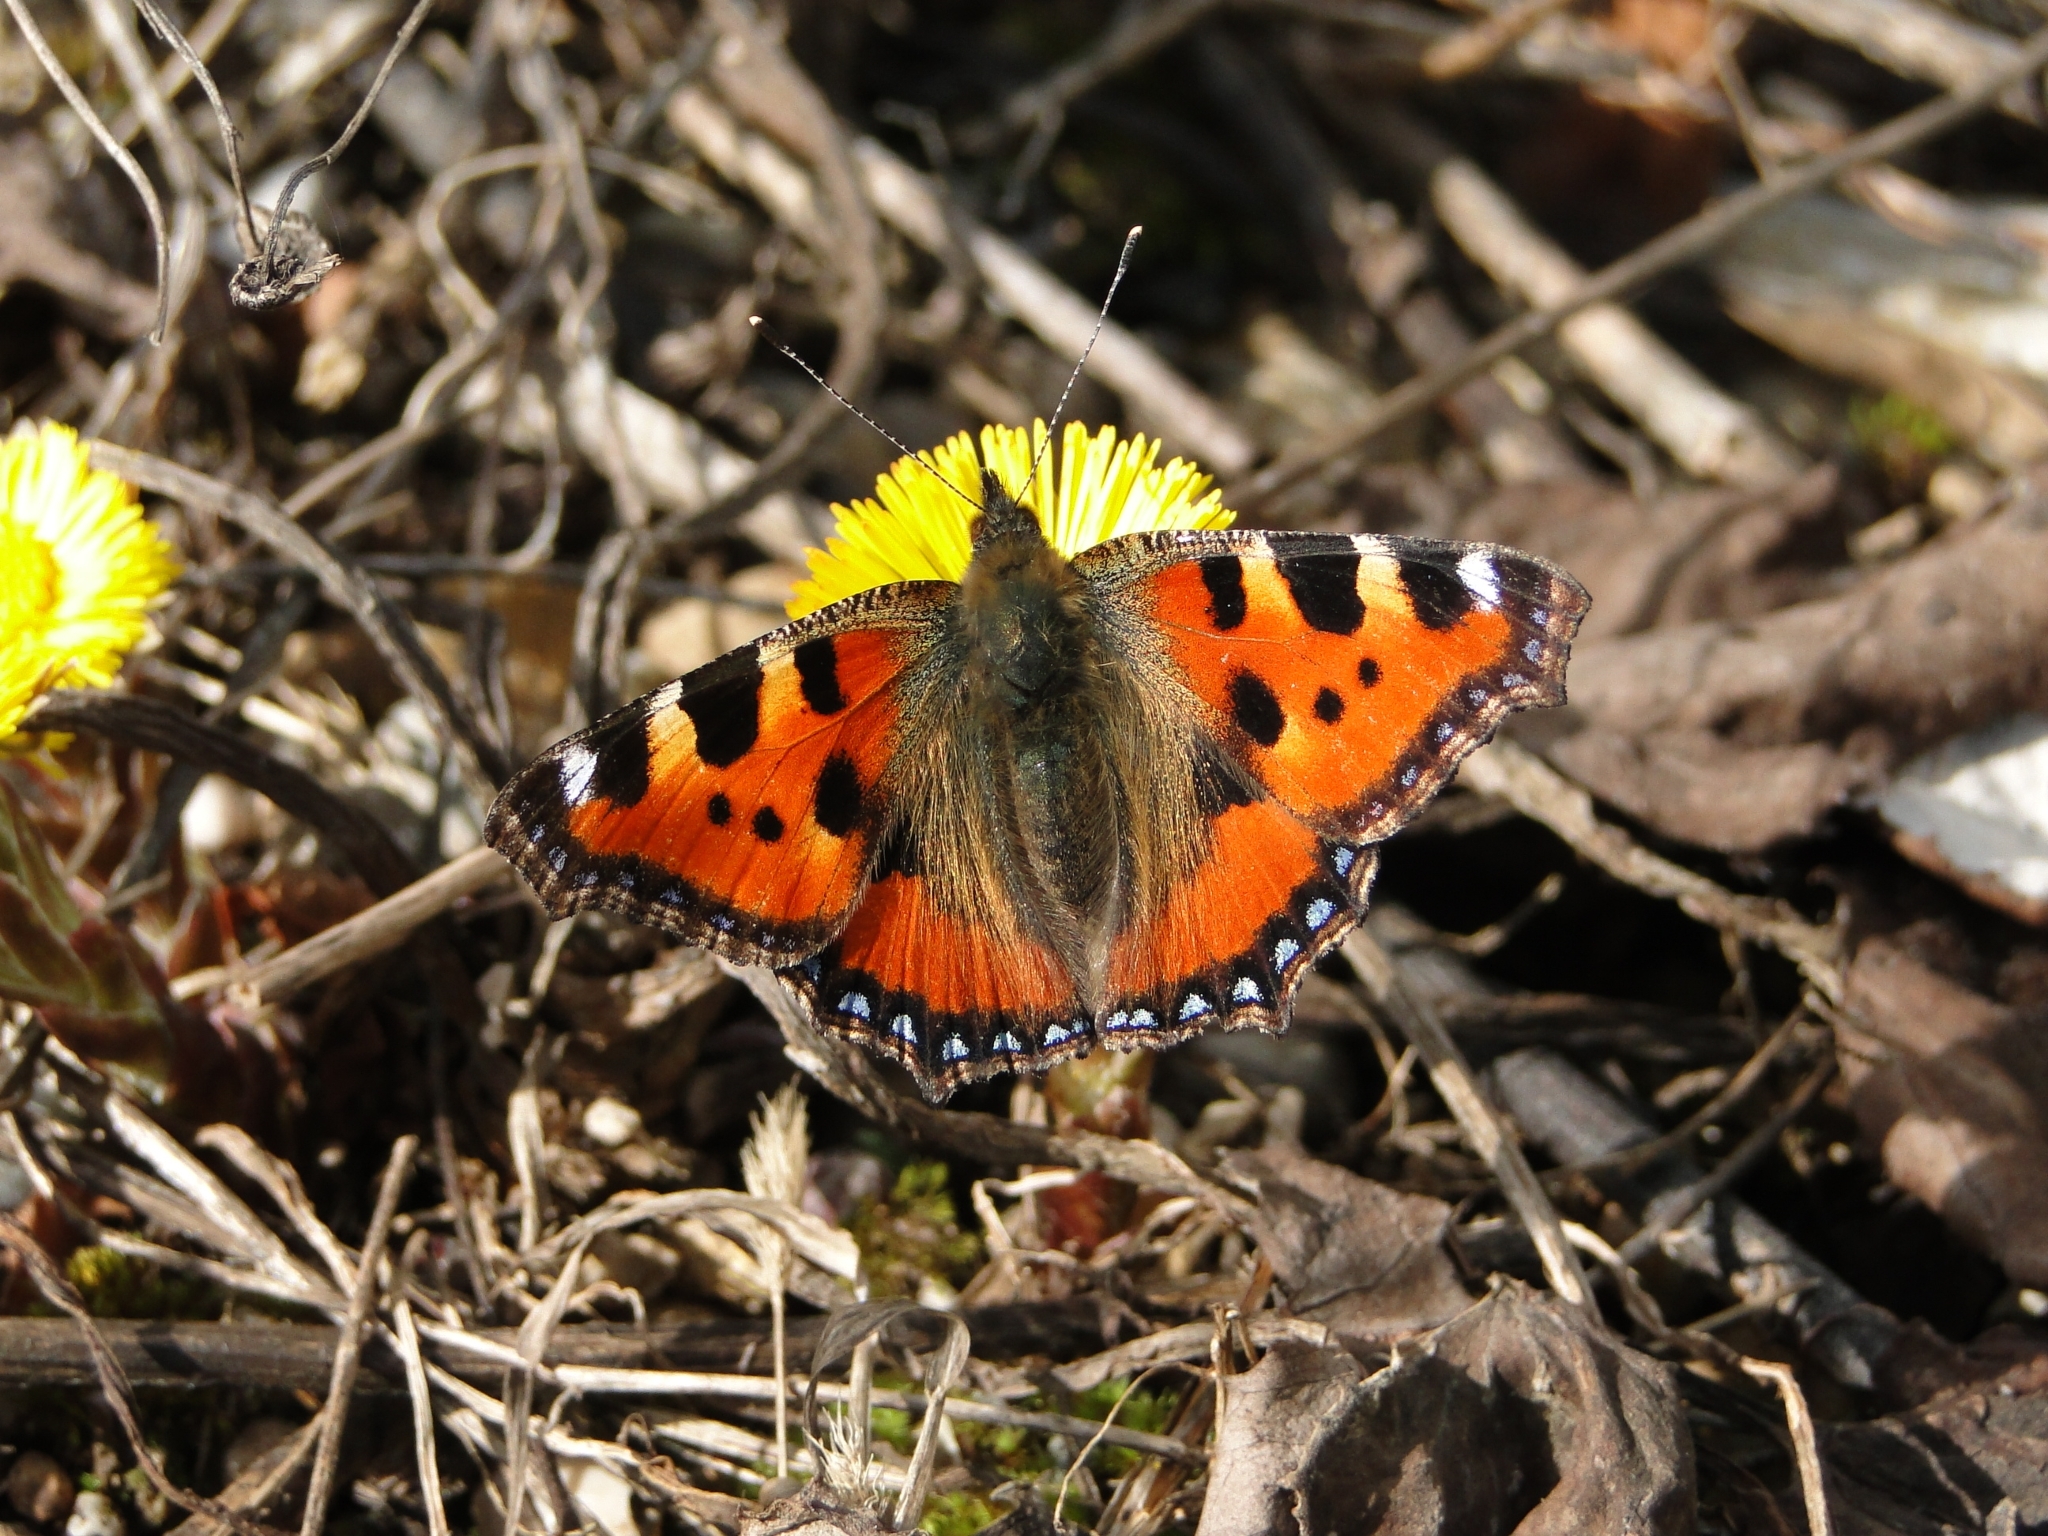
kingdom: Animalia
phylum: Arthropoda
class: Insecta
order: Lepidoptera
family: Nymphalidae
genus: Aglais
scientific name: Aglais urticae
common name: Small tortoiseshell
